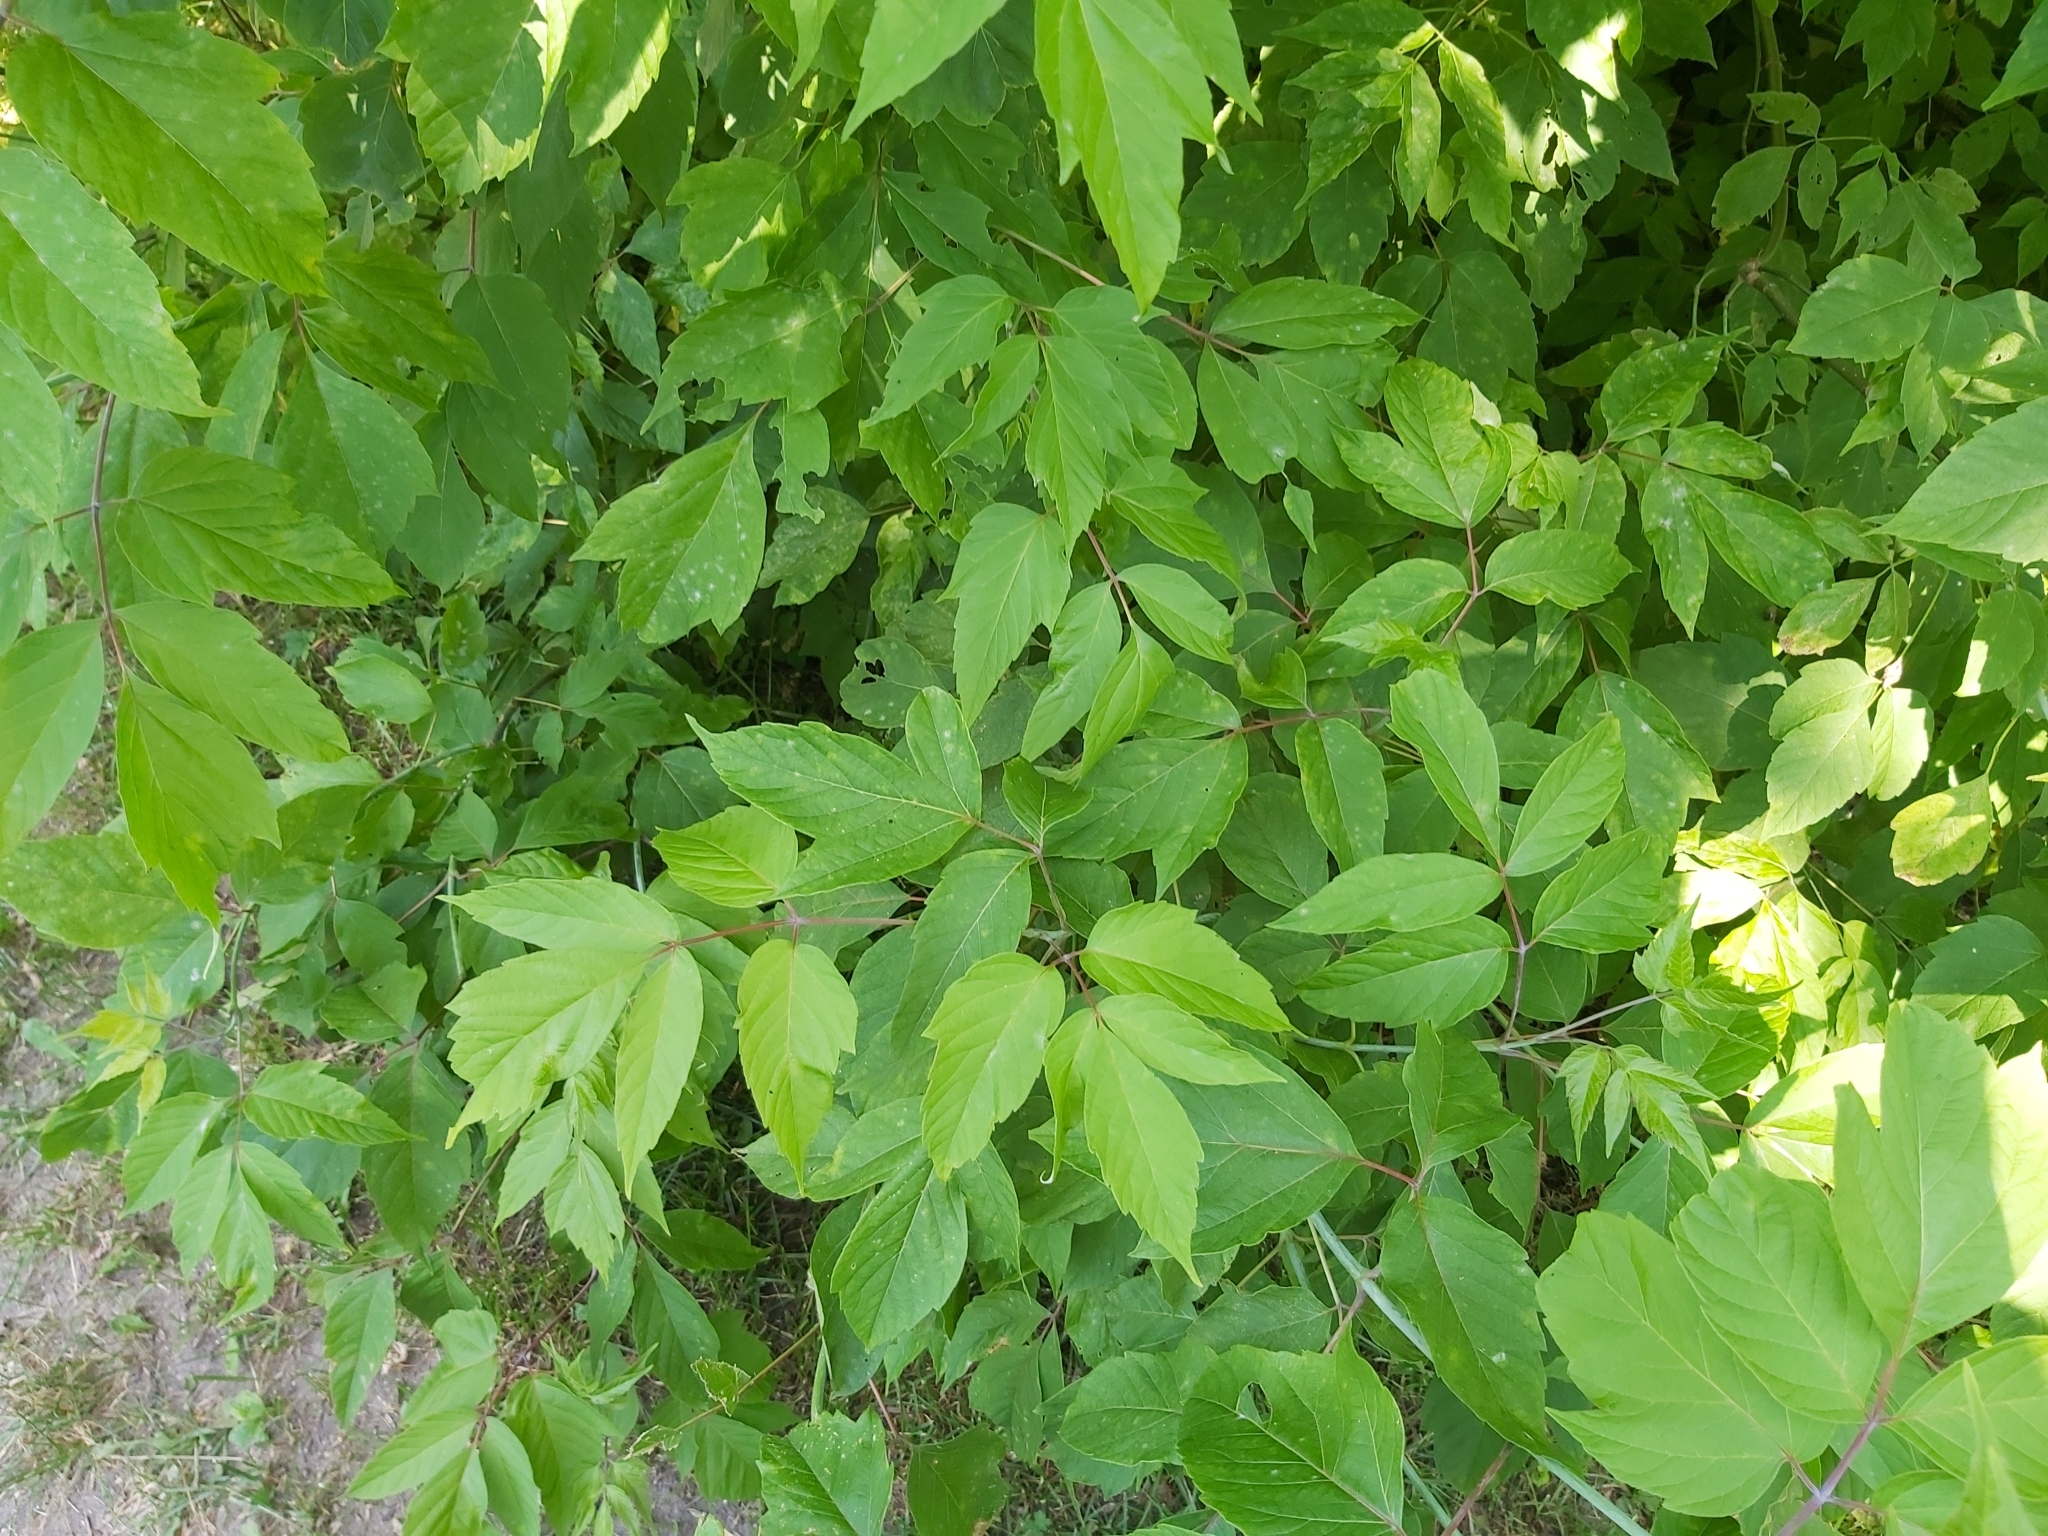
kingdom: Plantae
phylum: Tracheophyta
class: Magnoliopsida
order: Sapindales
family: Sapindaceae
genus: Acer
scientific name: Acer negundo
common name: Ashleaf maple
